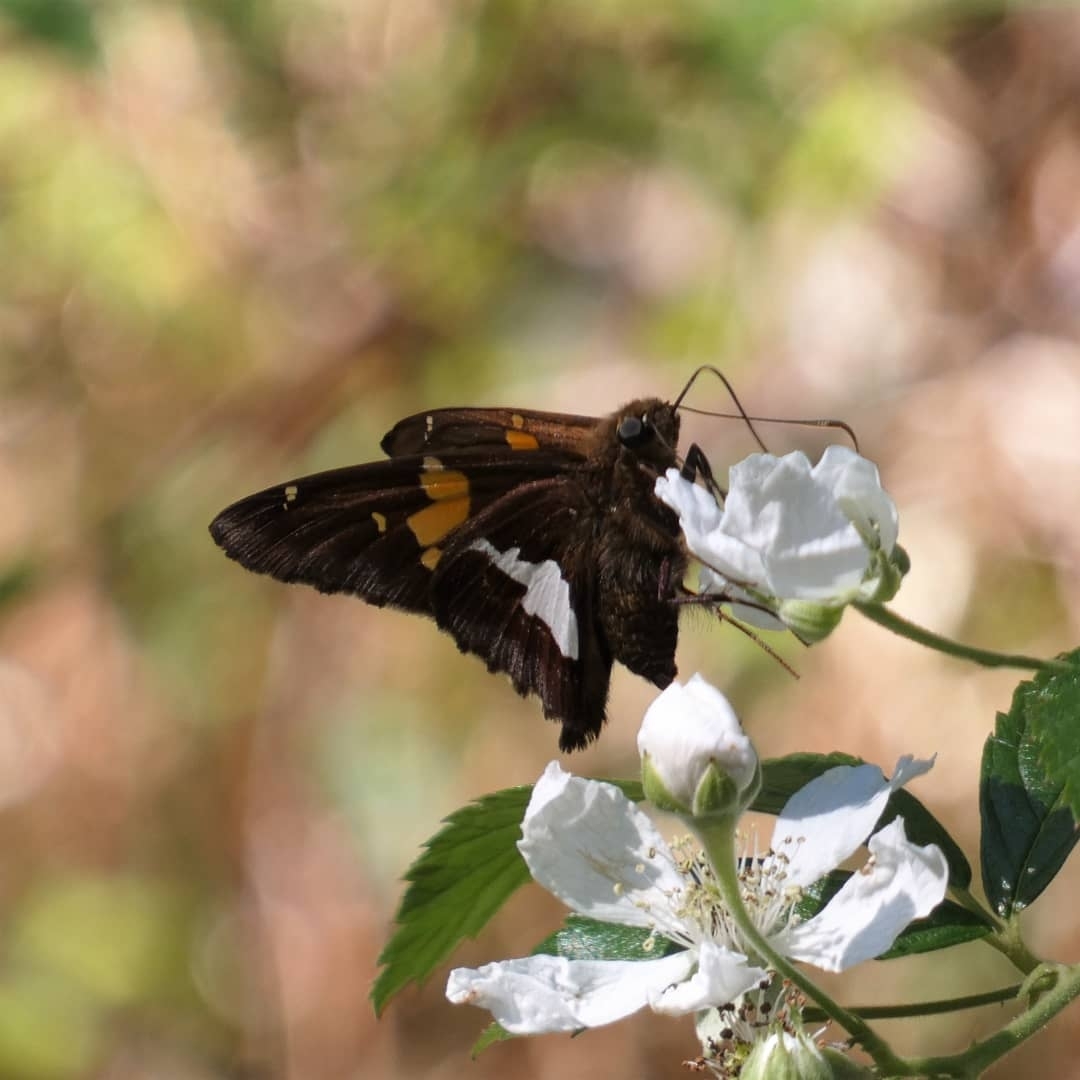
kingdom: Animalia
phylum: Arthropoda
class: Insecta
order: Lepidoptera
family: Hesperiidae
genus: Epargyreus
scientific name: Epargyreus clarus
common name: Silver-spotted skipper
